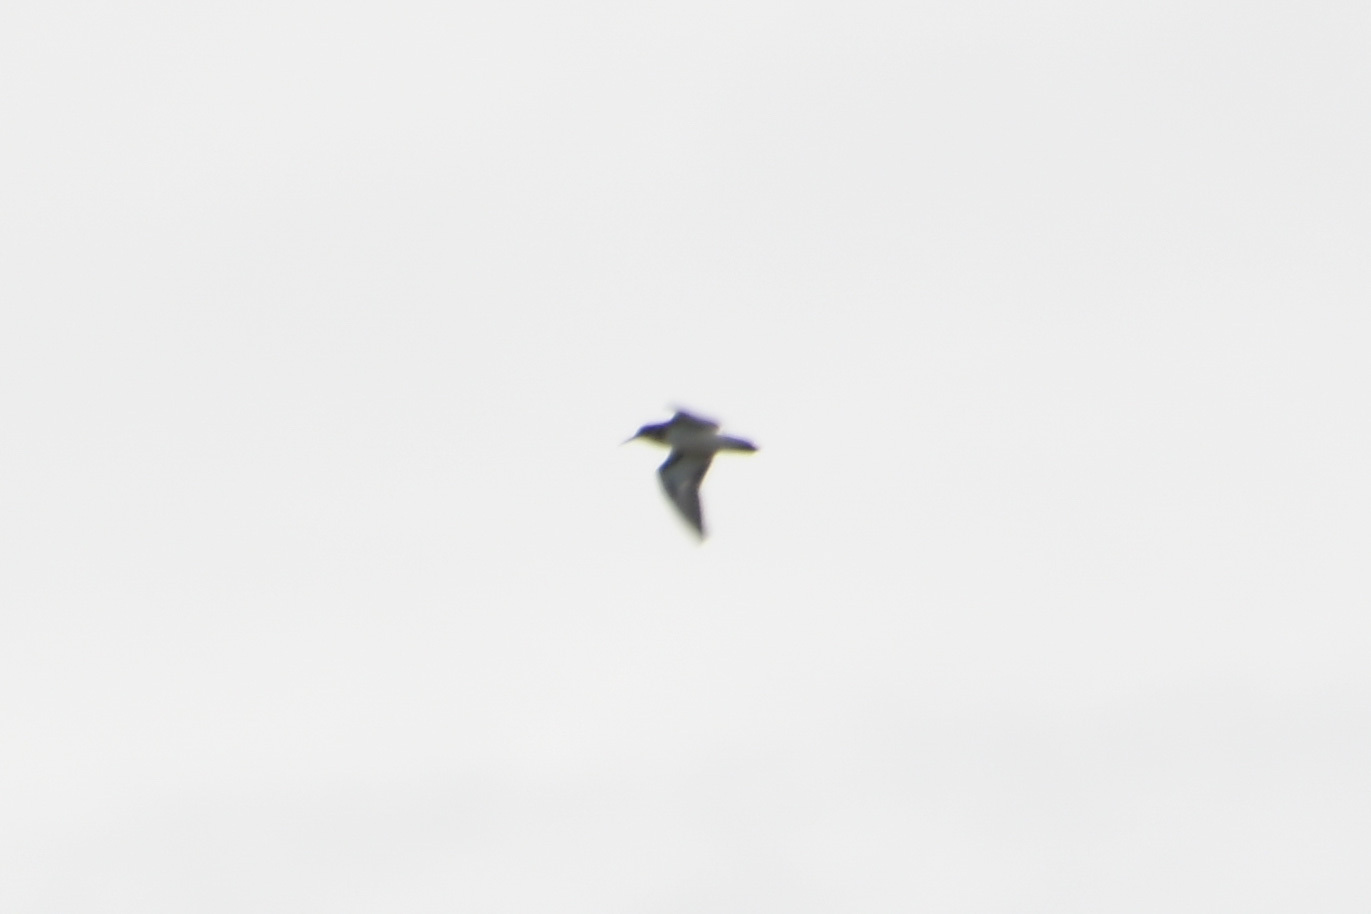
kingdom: Animalia
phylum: Chordata
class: Aves
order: Charadriiformes
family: Scolopacidae
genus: Calidris
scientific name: Calidris minutilla
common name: Least sandpiper
